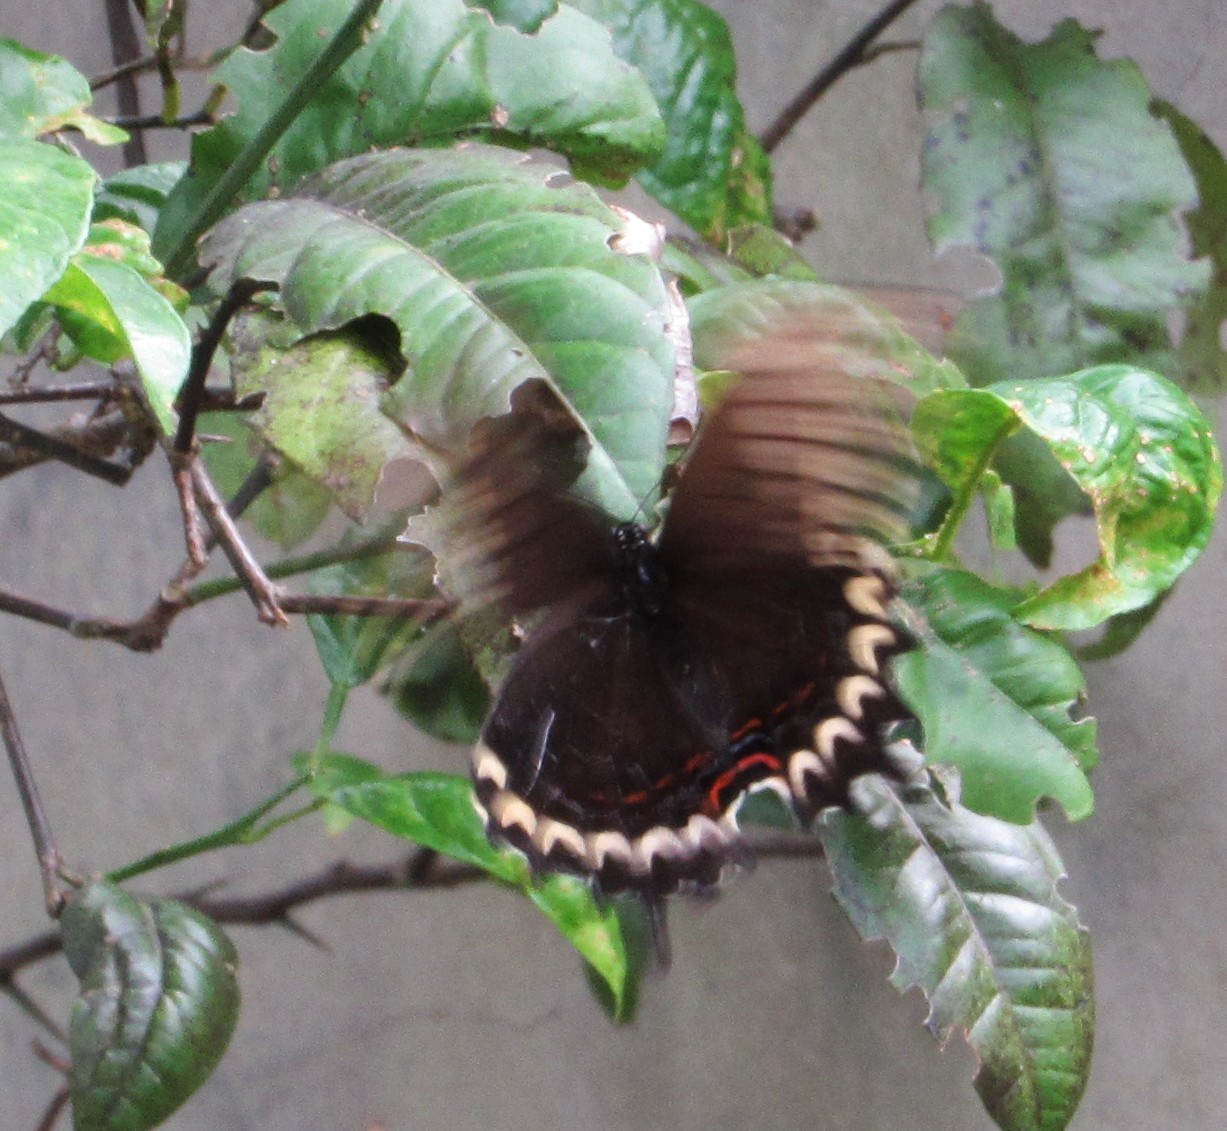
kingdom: Animalia
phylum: Arthropoda
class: Insecta
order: Lepidoptera
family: Papilionidae
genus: Papilio
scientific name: Papilio astyalus
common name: Astyalus swallowtail
